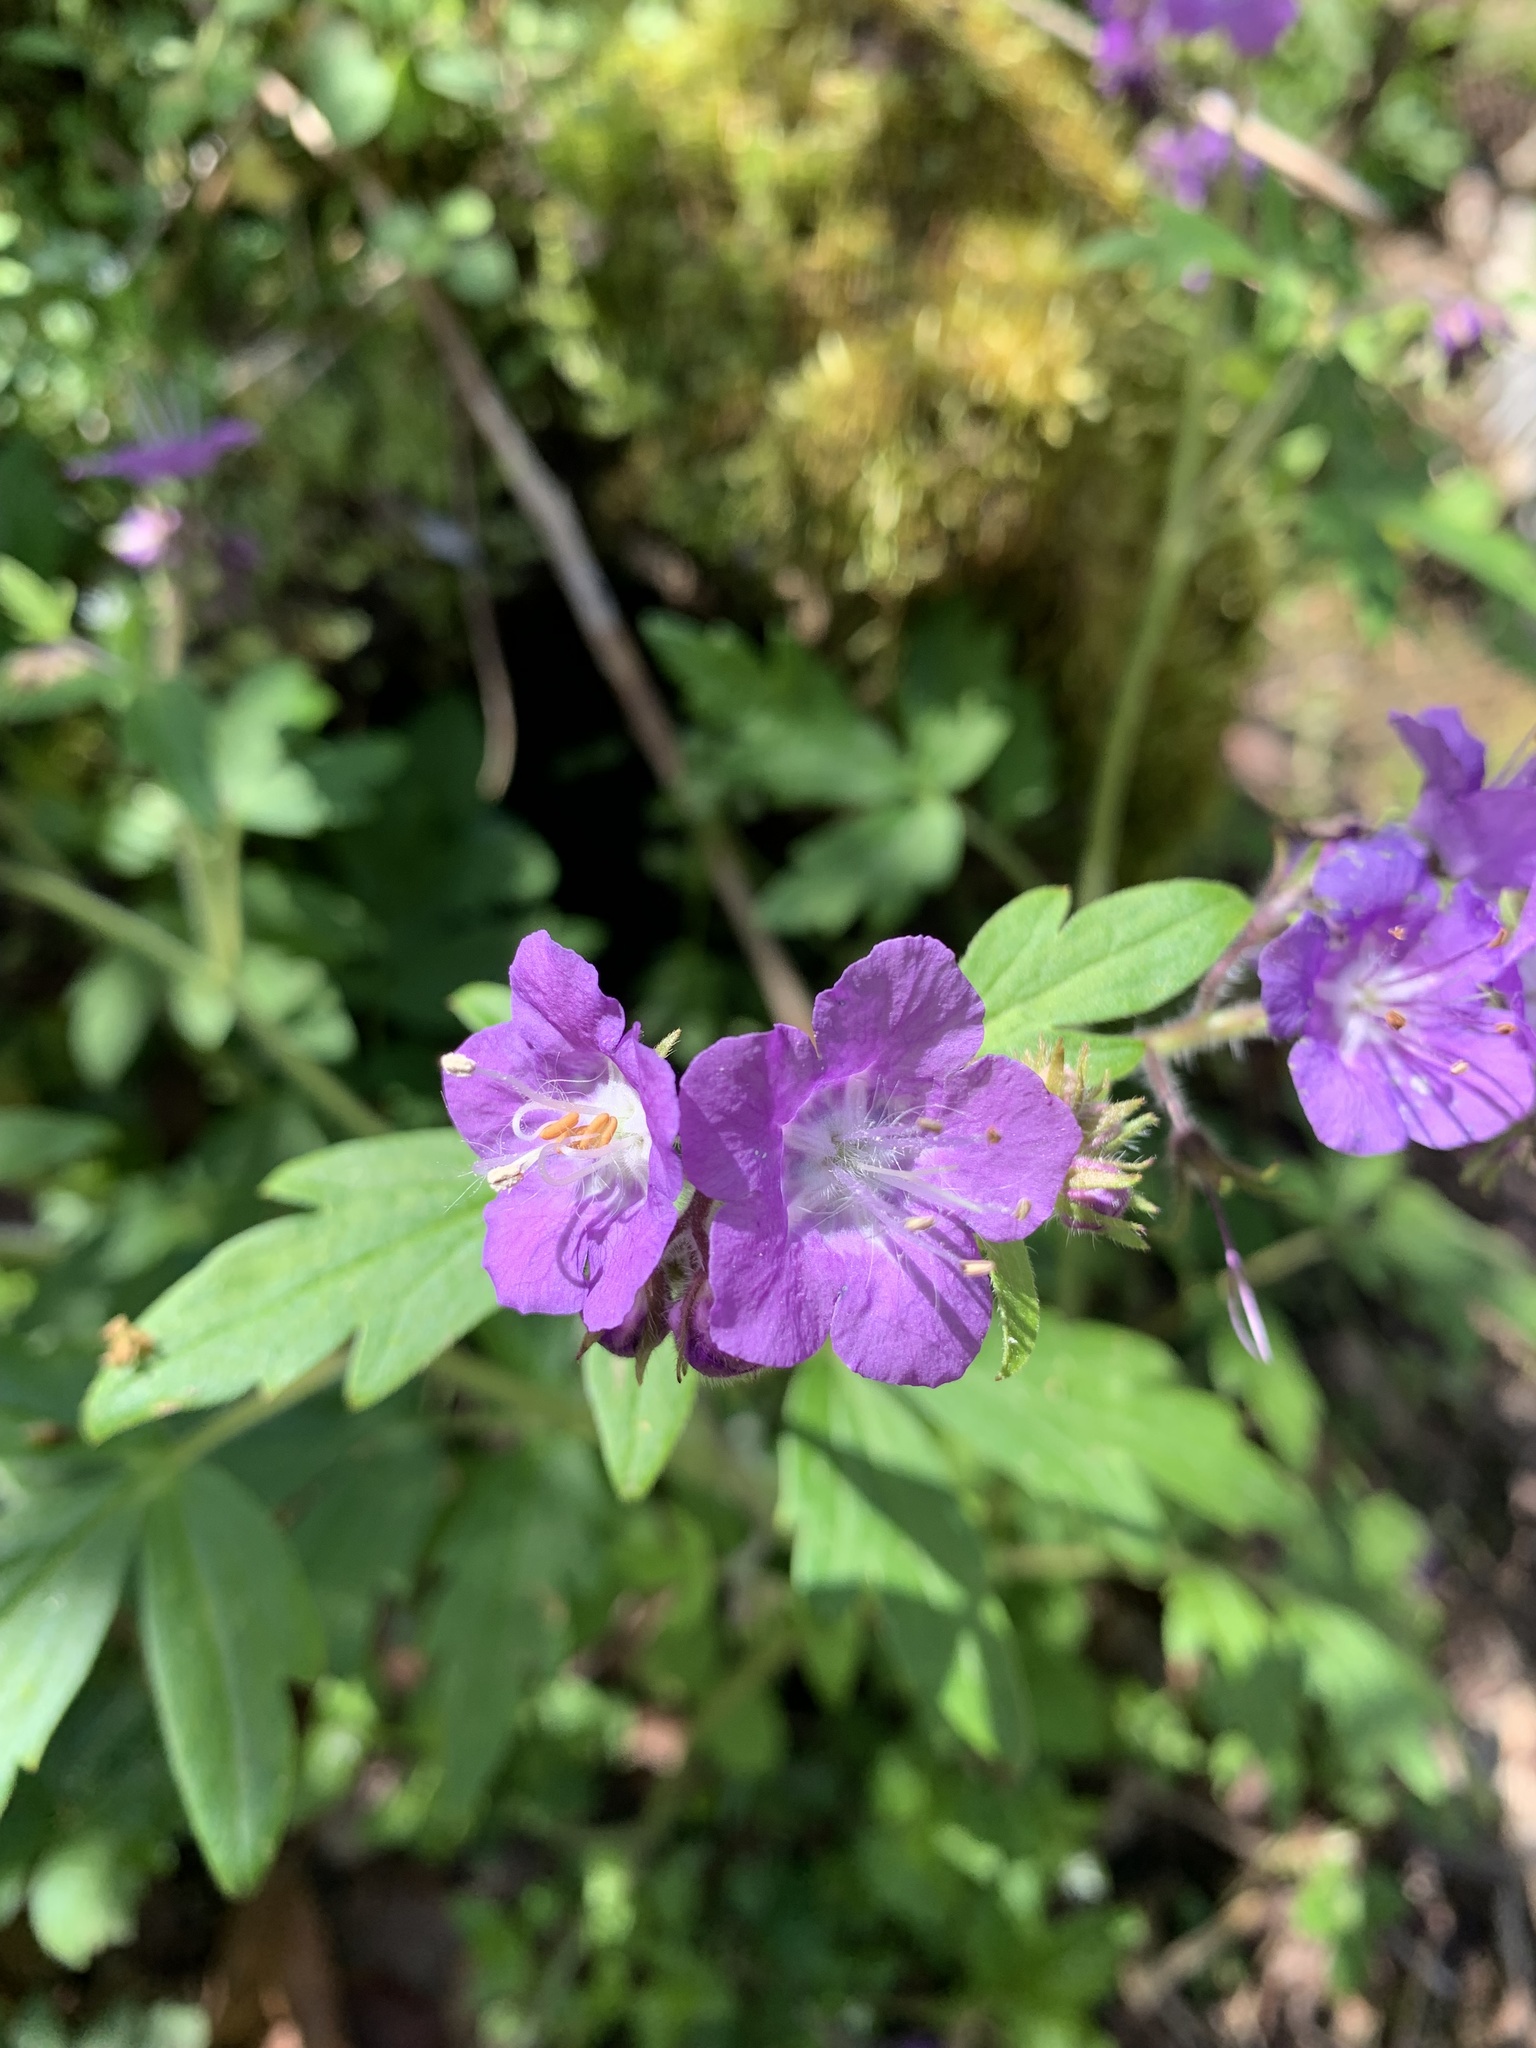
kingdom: Plantae
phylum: Tracheophyta
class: Magnoliopsida
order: Boraginales
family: Hydrophyllaceae
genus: Phacelia
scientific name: Phacelia bipinnatifida
